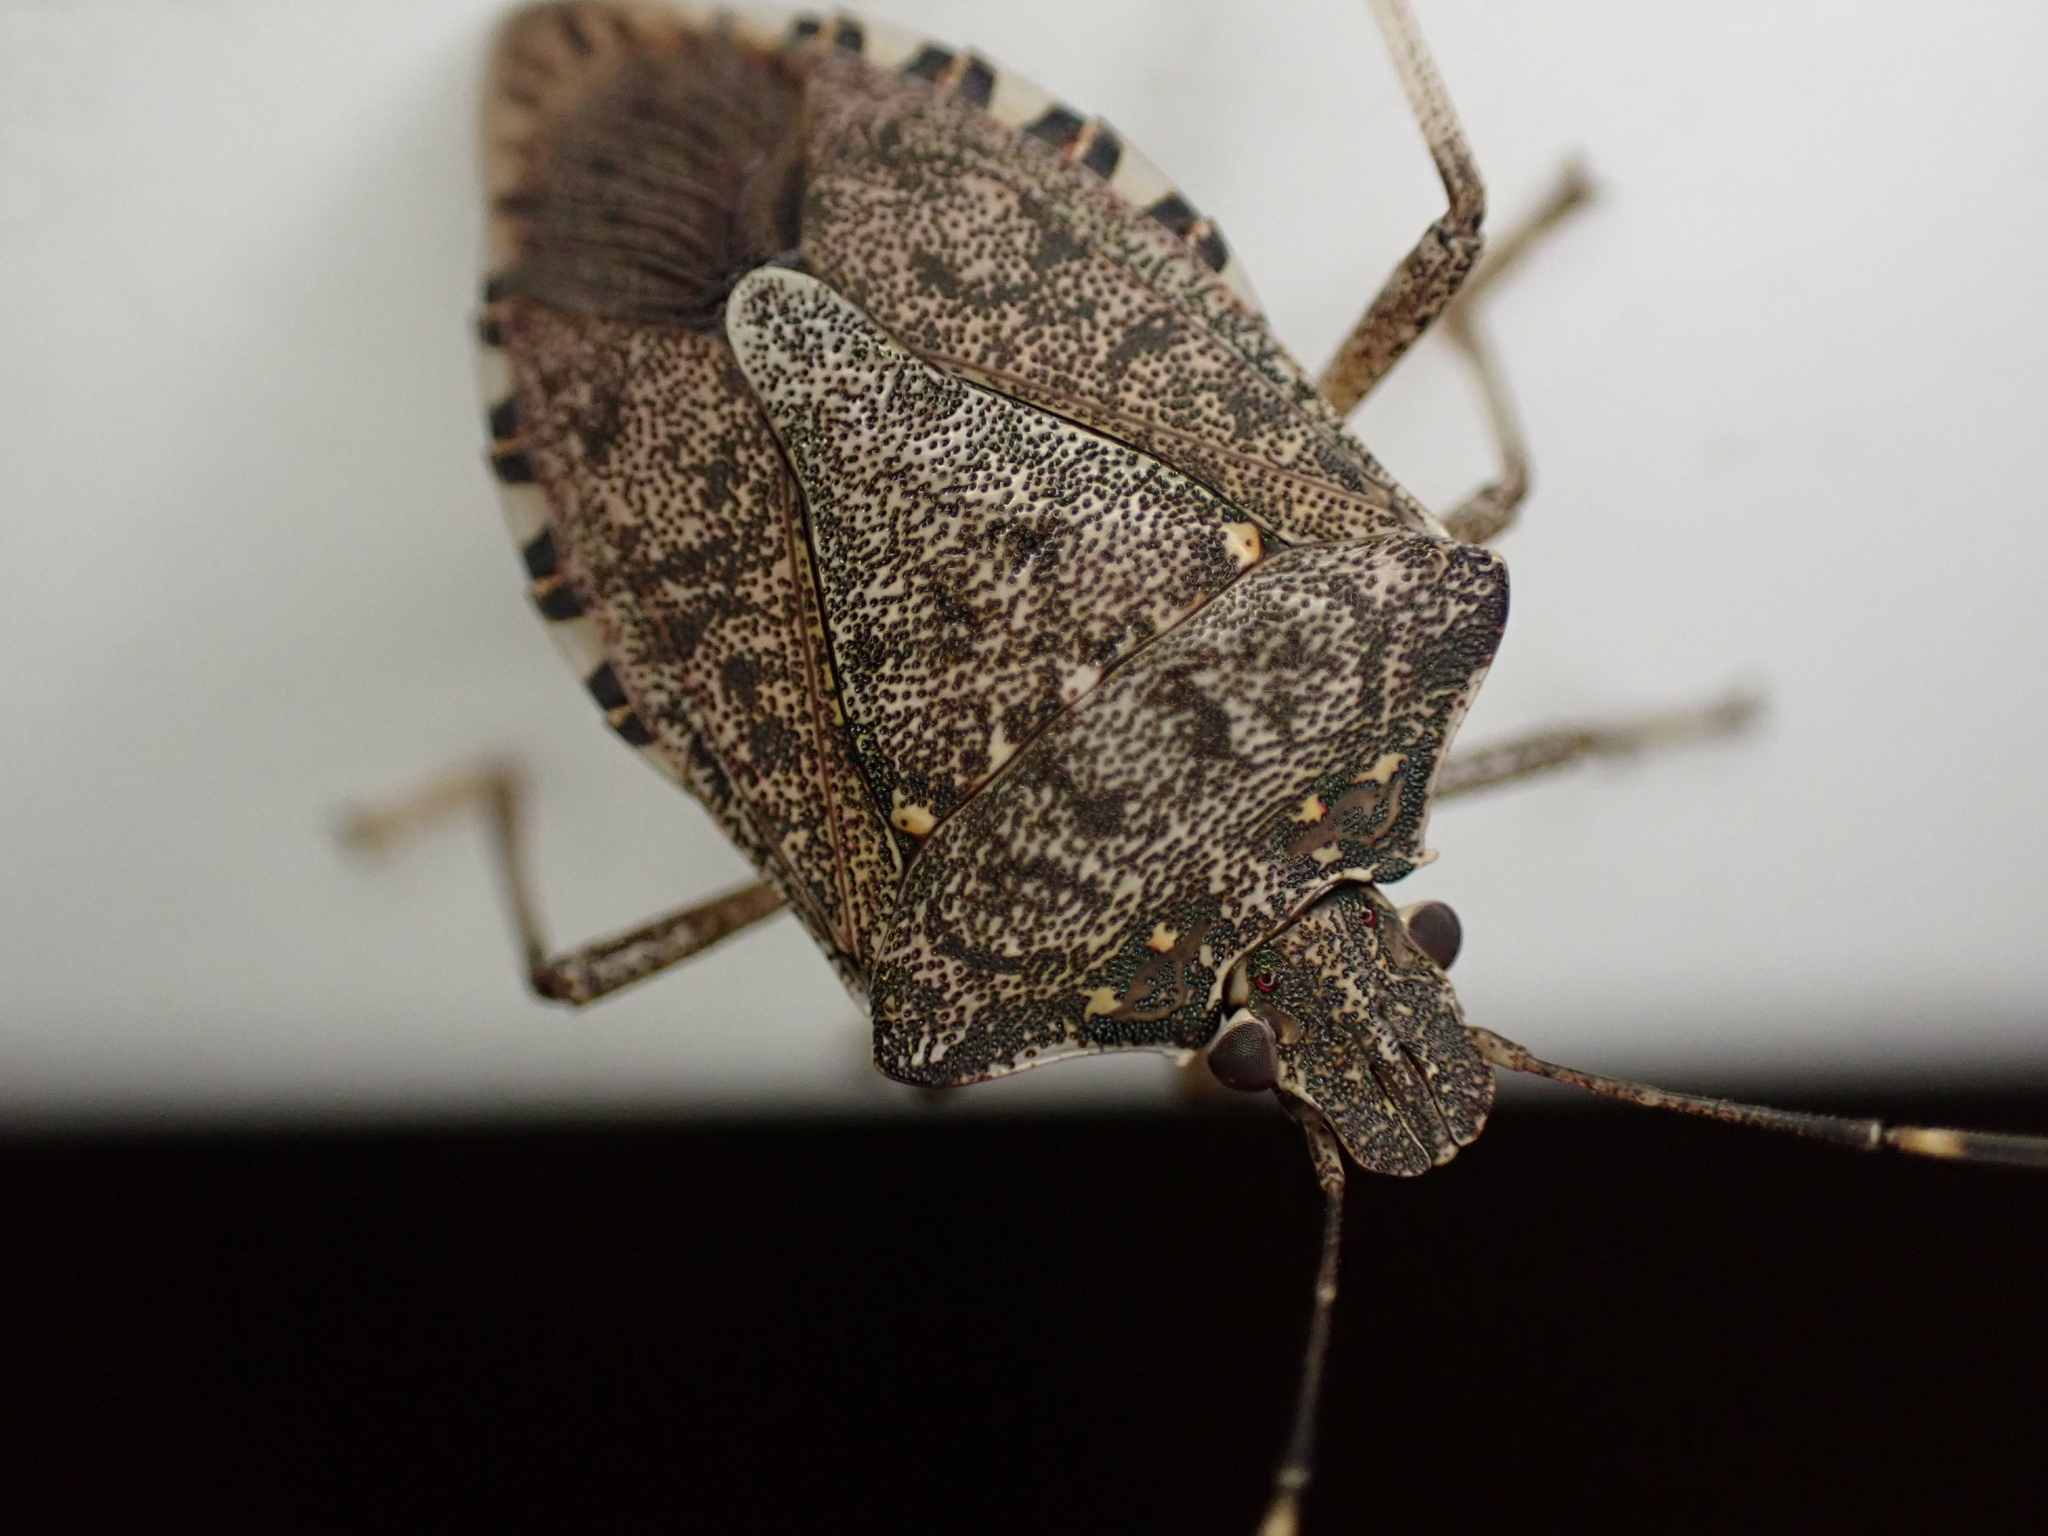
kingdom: Animalia
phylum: Arthropoda
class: Insecta
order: Hemiptera
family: Pentatomidae
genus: Halyomorpha
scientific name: Halyomorpha halys
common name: Brown marmorated stink bug
